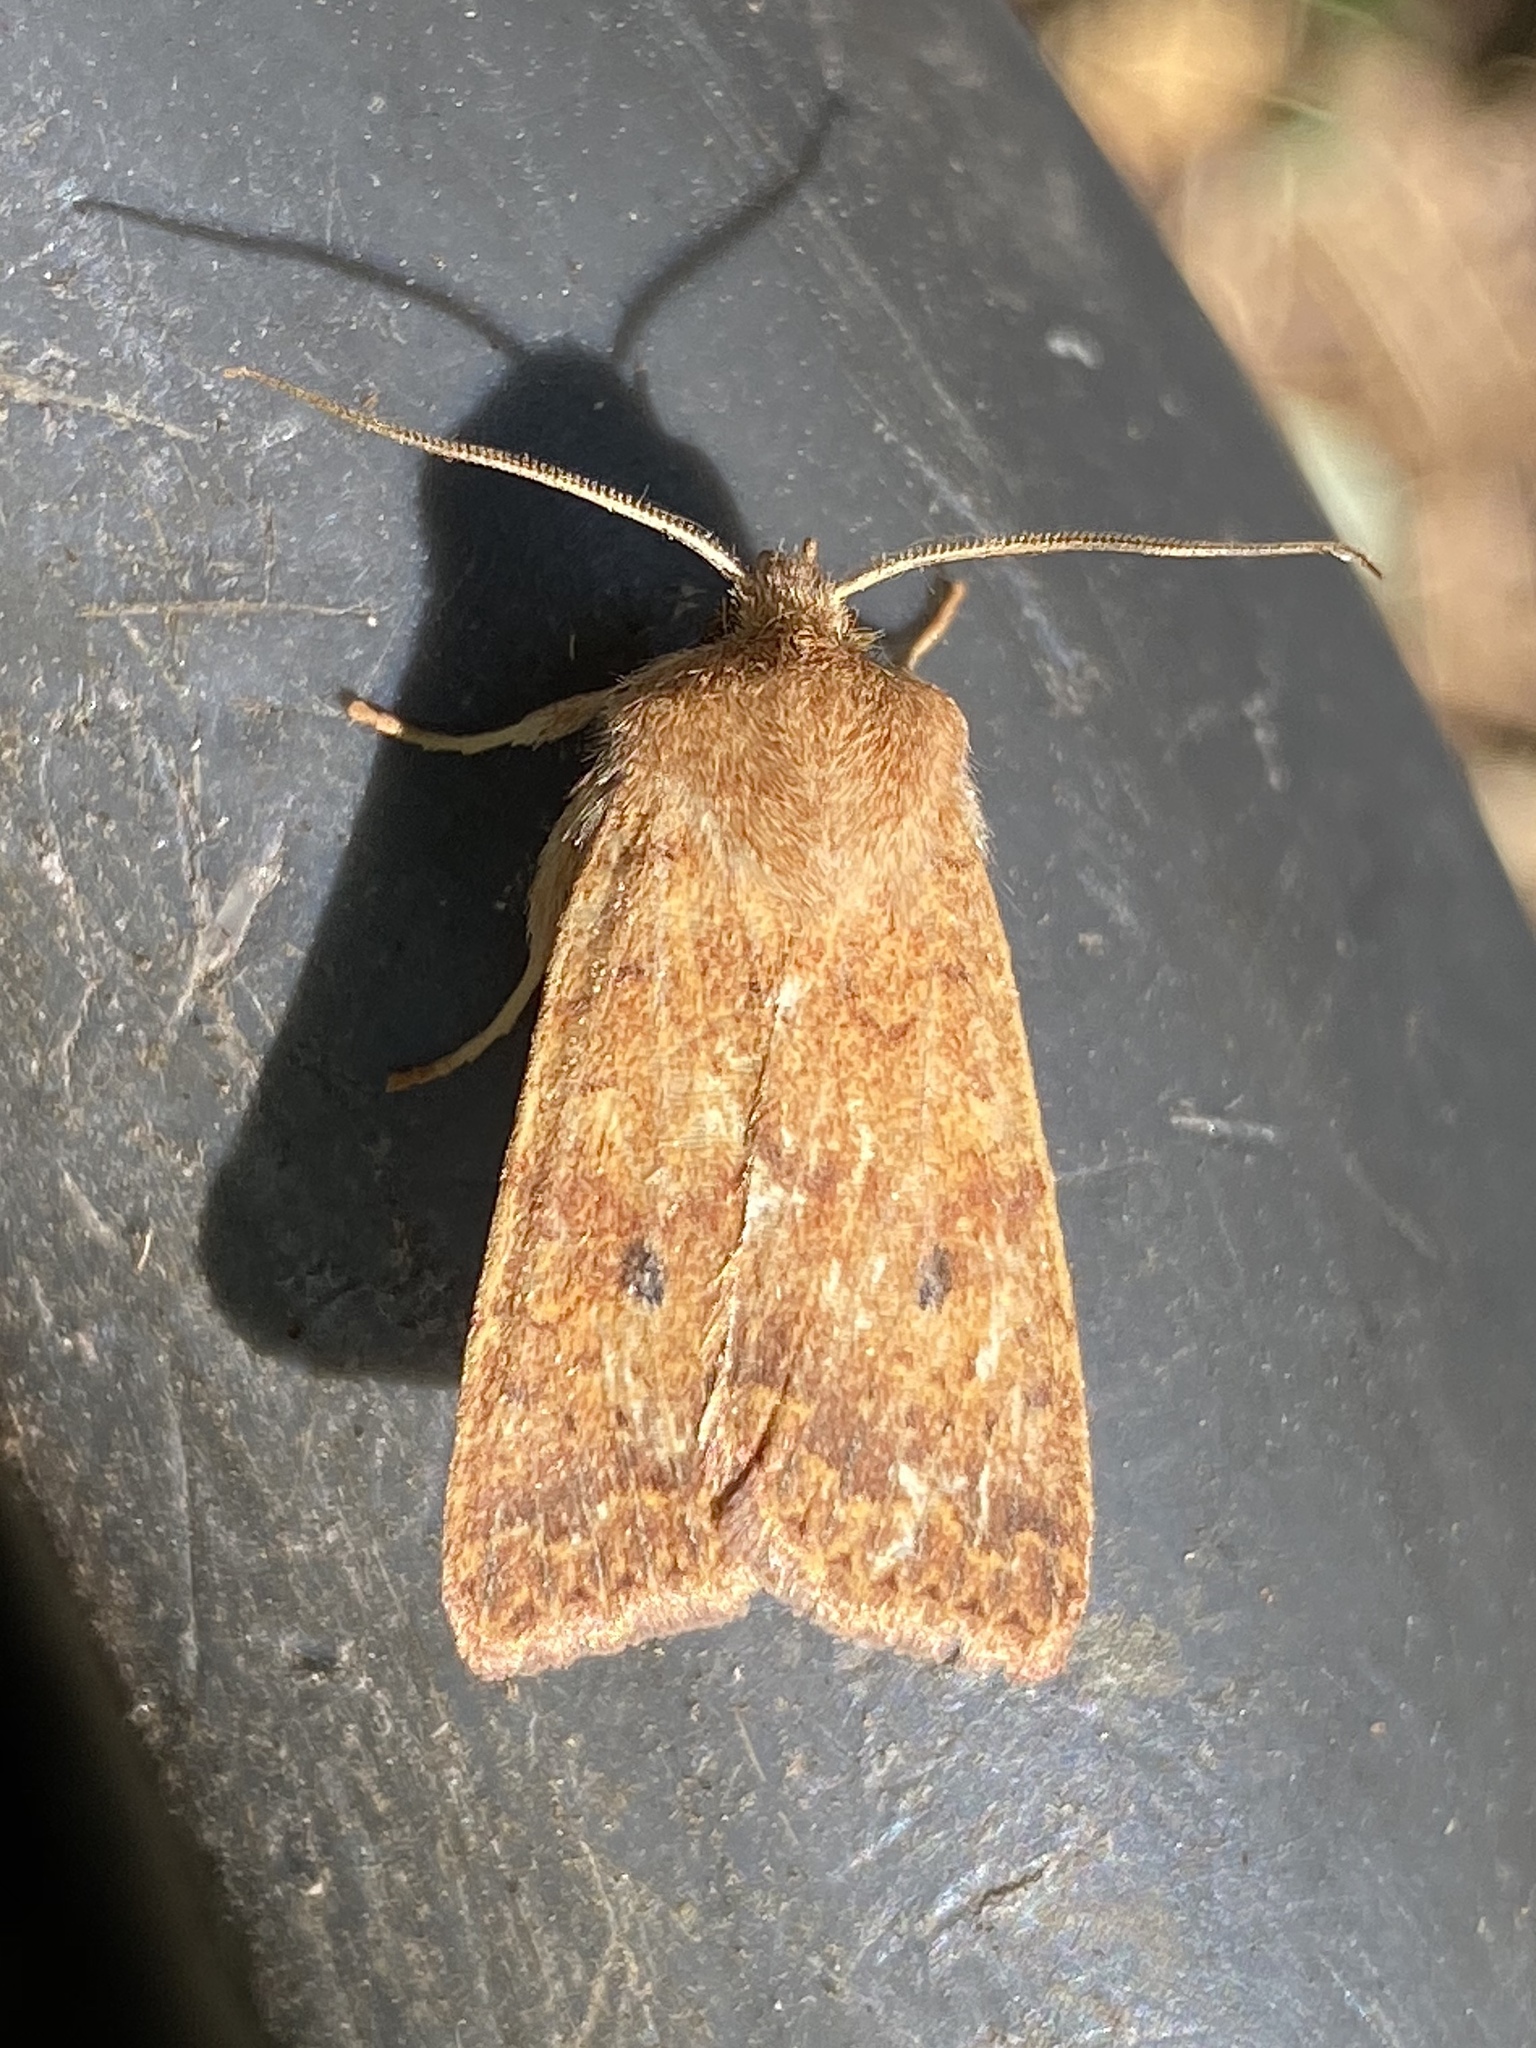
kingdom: Animalia
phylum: Arthropoda
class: Insecta
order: Lepidoptera
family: Noctuidae
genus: Agrochola
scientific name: Agrochola bicolorago
